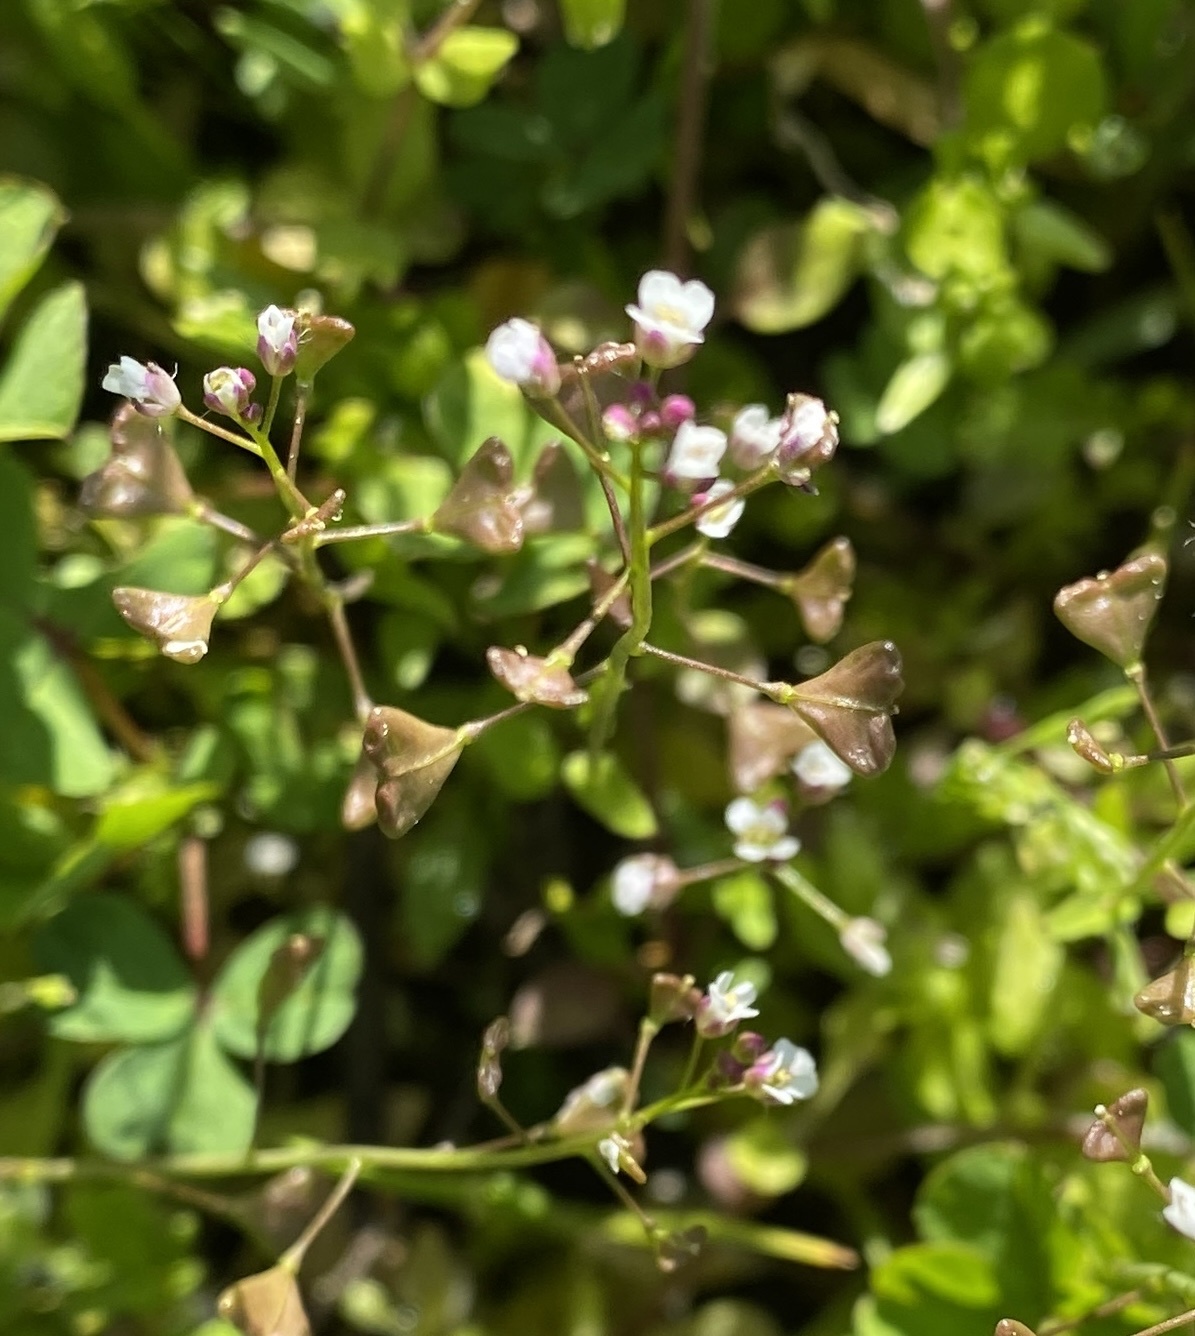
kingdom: Plantae
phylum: Tracheophyta
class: Magnoliopsida
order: Brassicales
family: Brassicaceae
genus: Capsella
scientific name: Capsella bursa-pastoris
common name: Shepherd's purse
